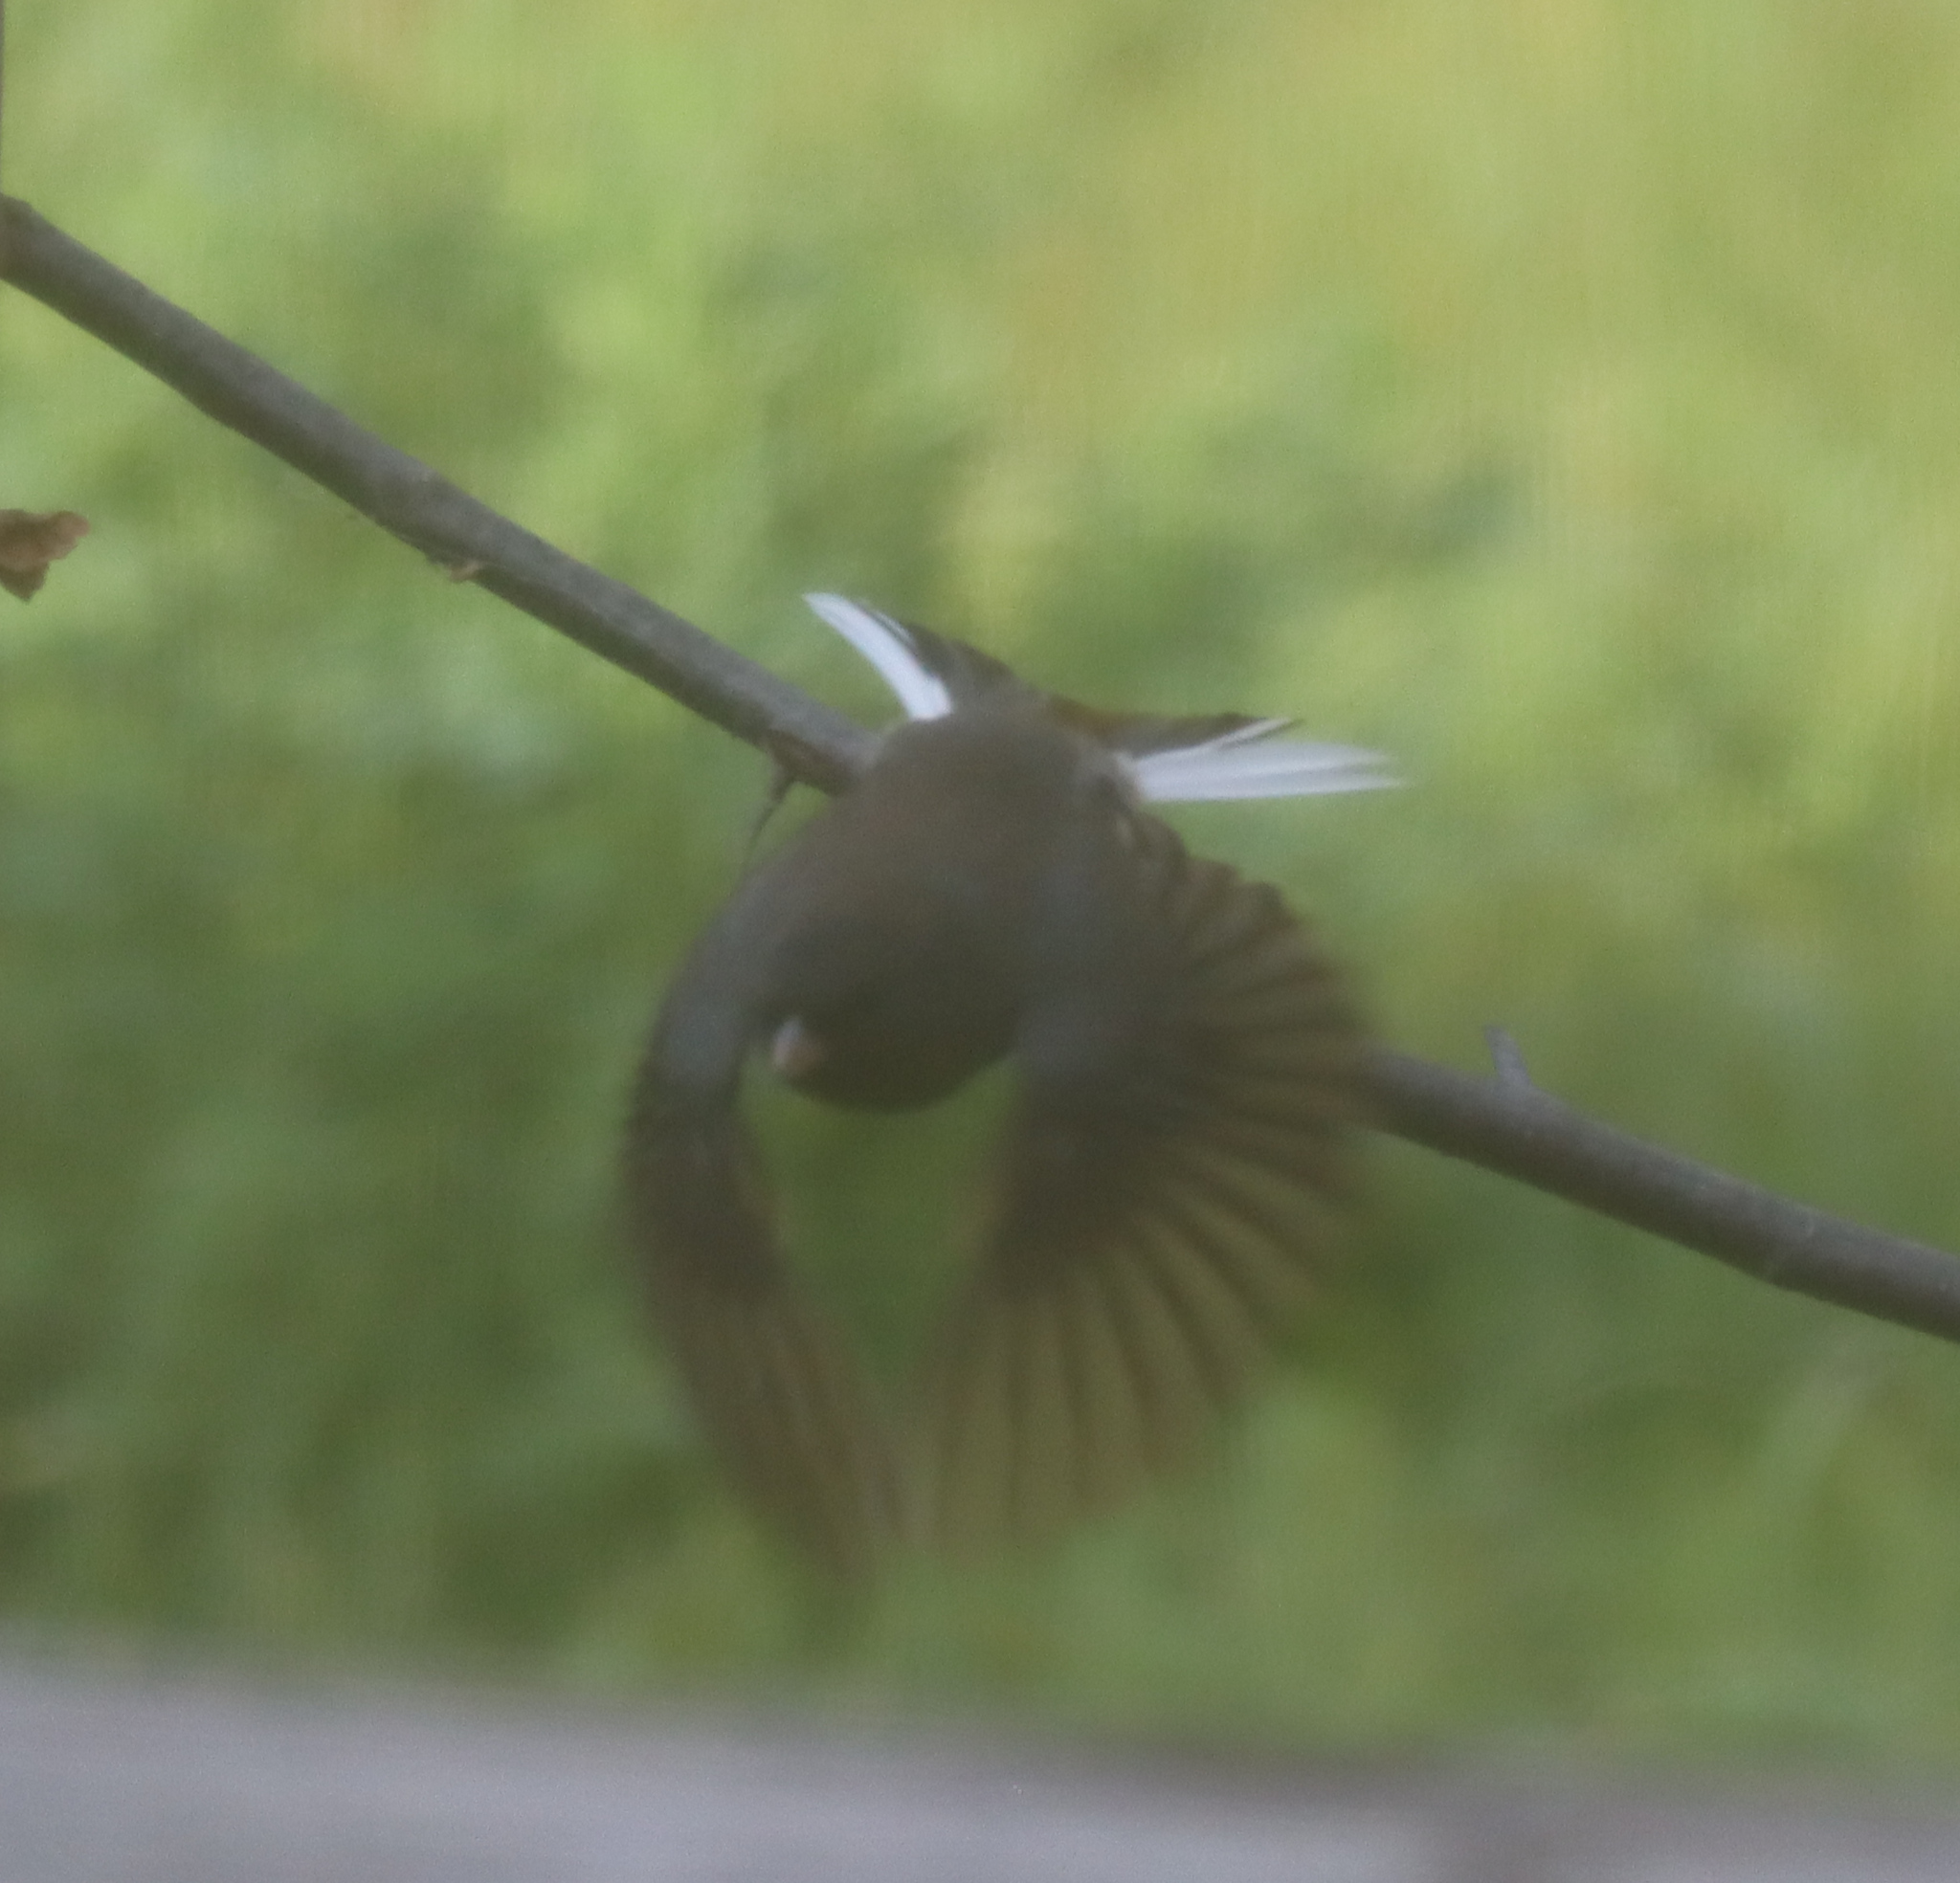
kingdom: Animalia
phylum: Chordata
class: Aves
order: Passeriformes
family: Passerellidae
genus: Junco
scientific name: Junco hyemalis
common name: Dark-eyed junco
